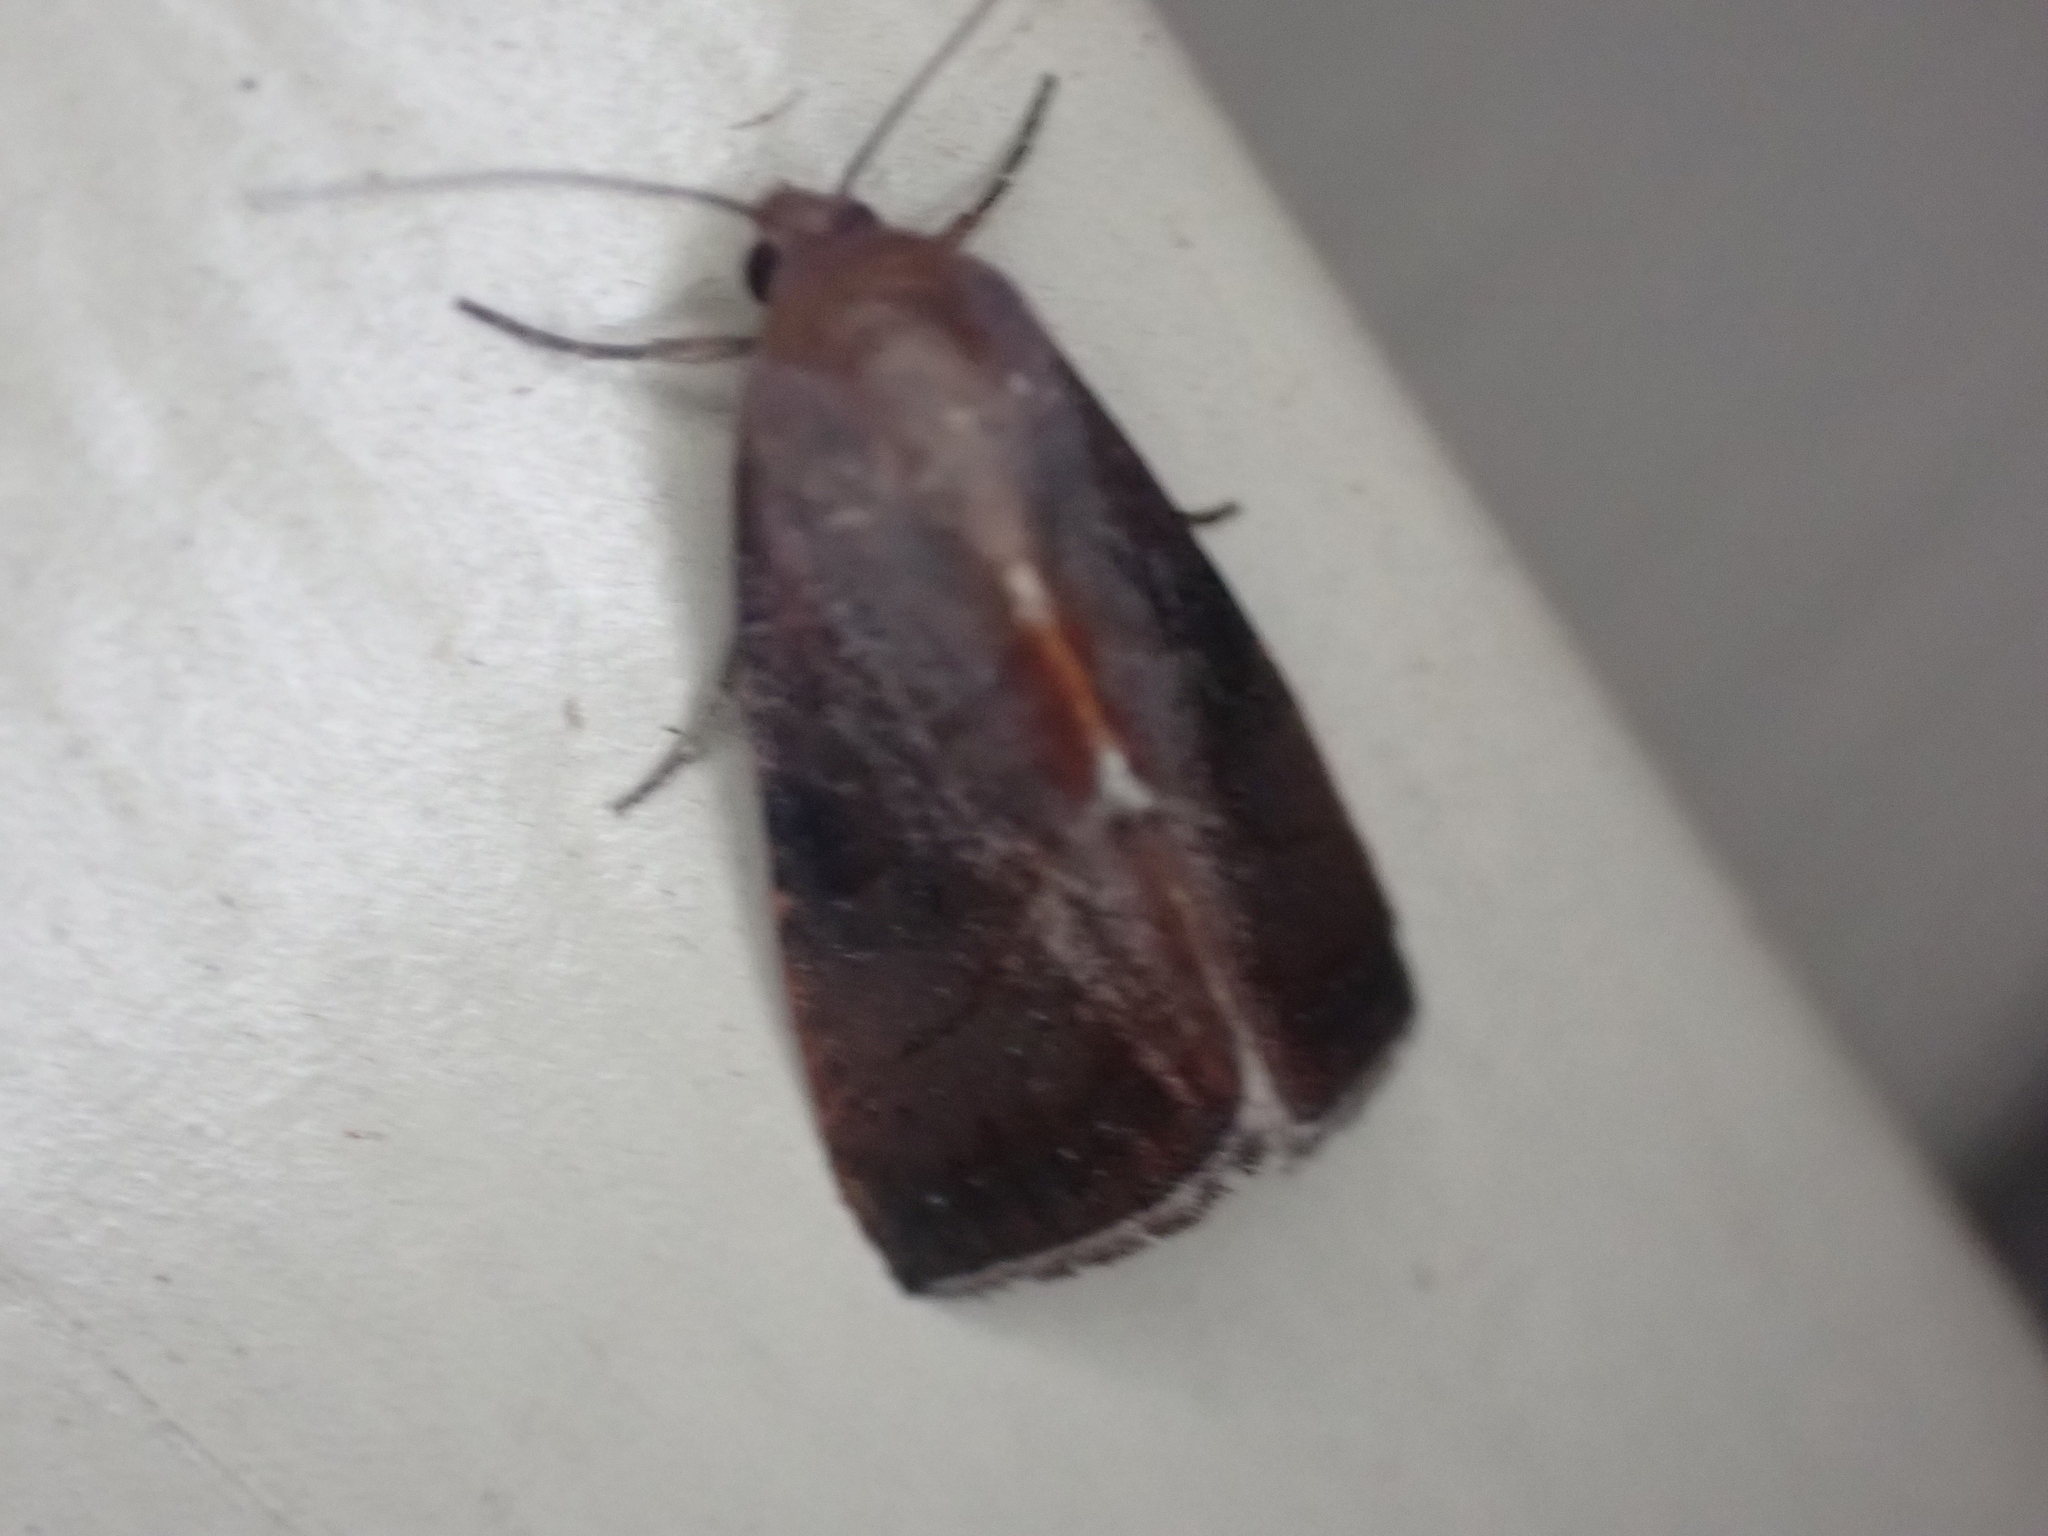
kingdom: Animalia
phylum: Arthropoda
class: Insecta
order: Lepidoptera
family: Noctuidae
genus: Galgula
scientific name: Galgula partita
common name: Wedgeling
